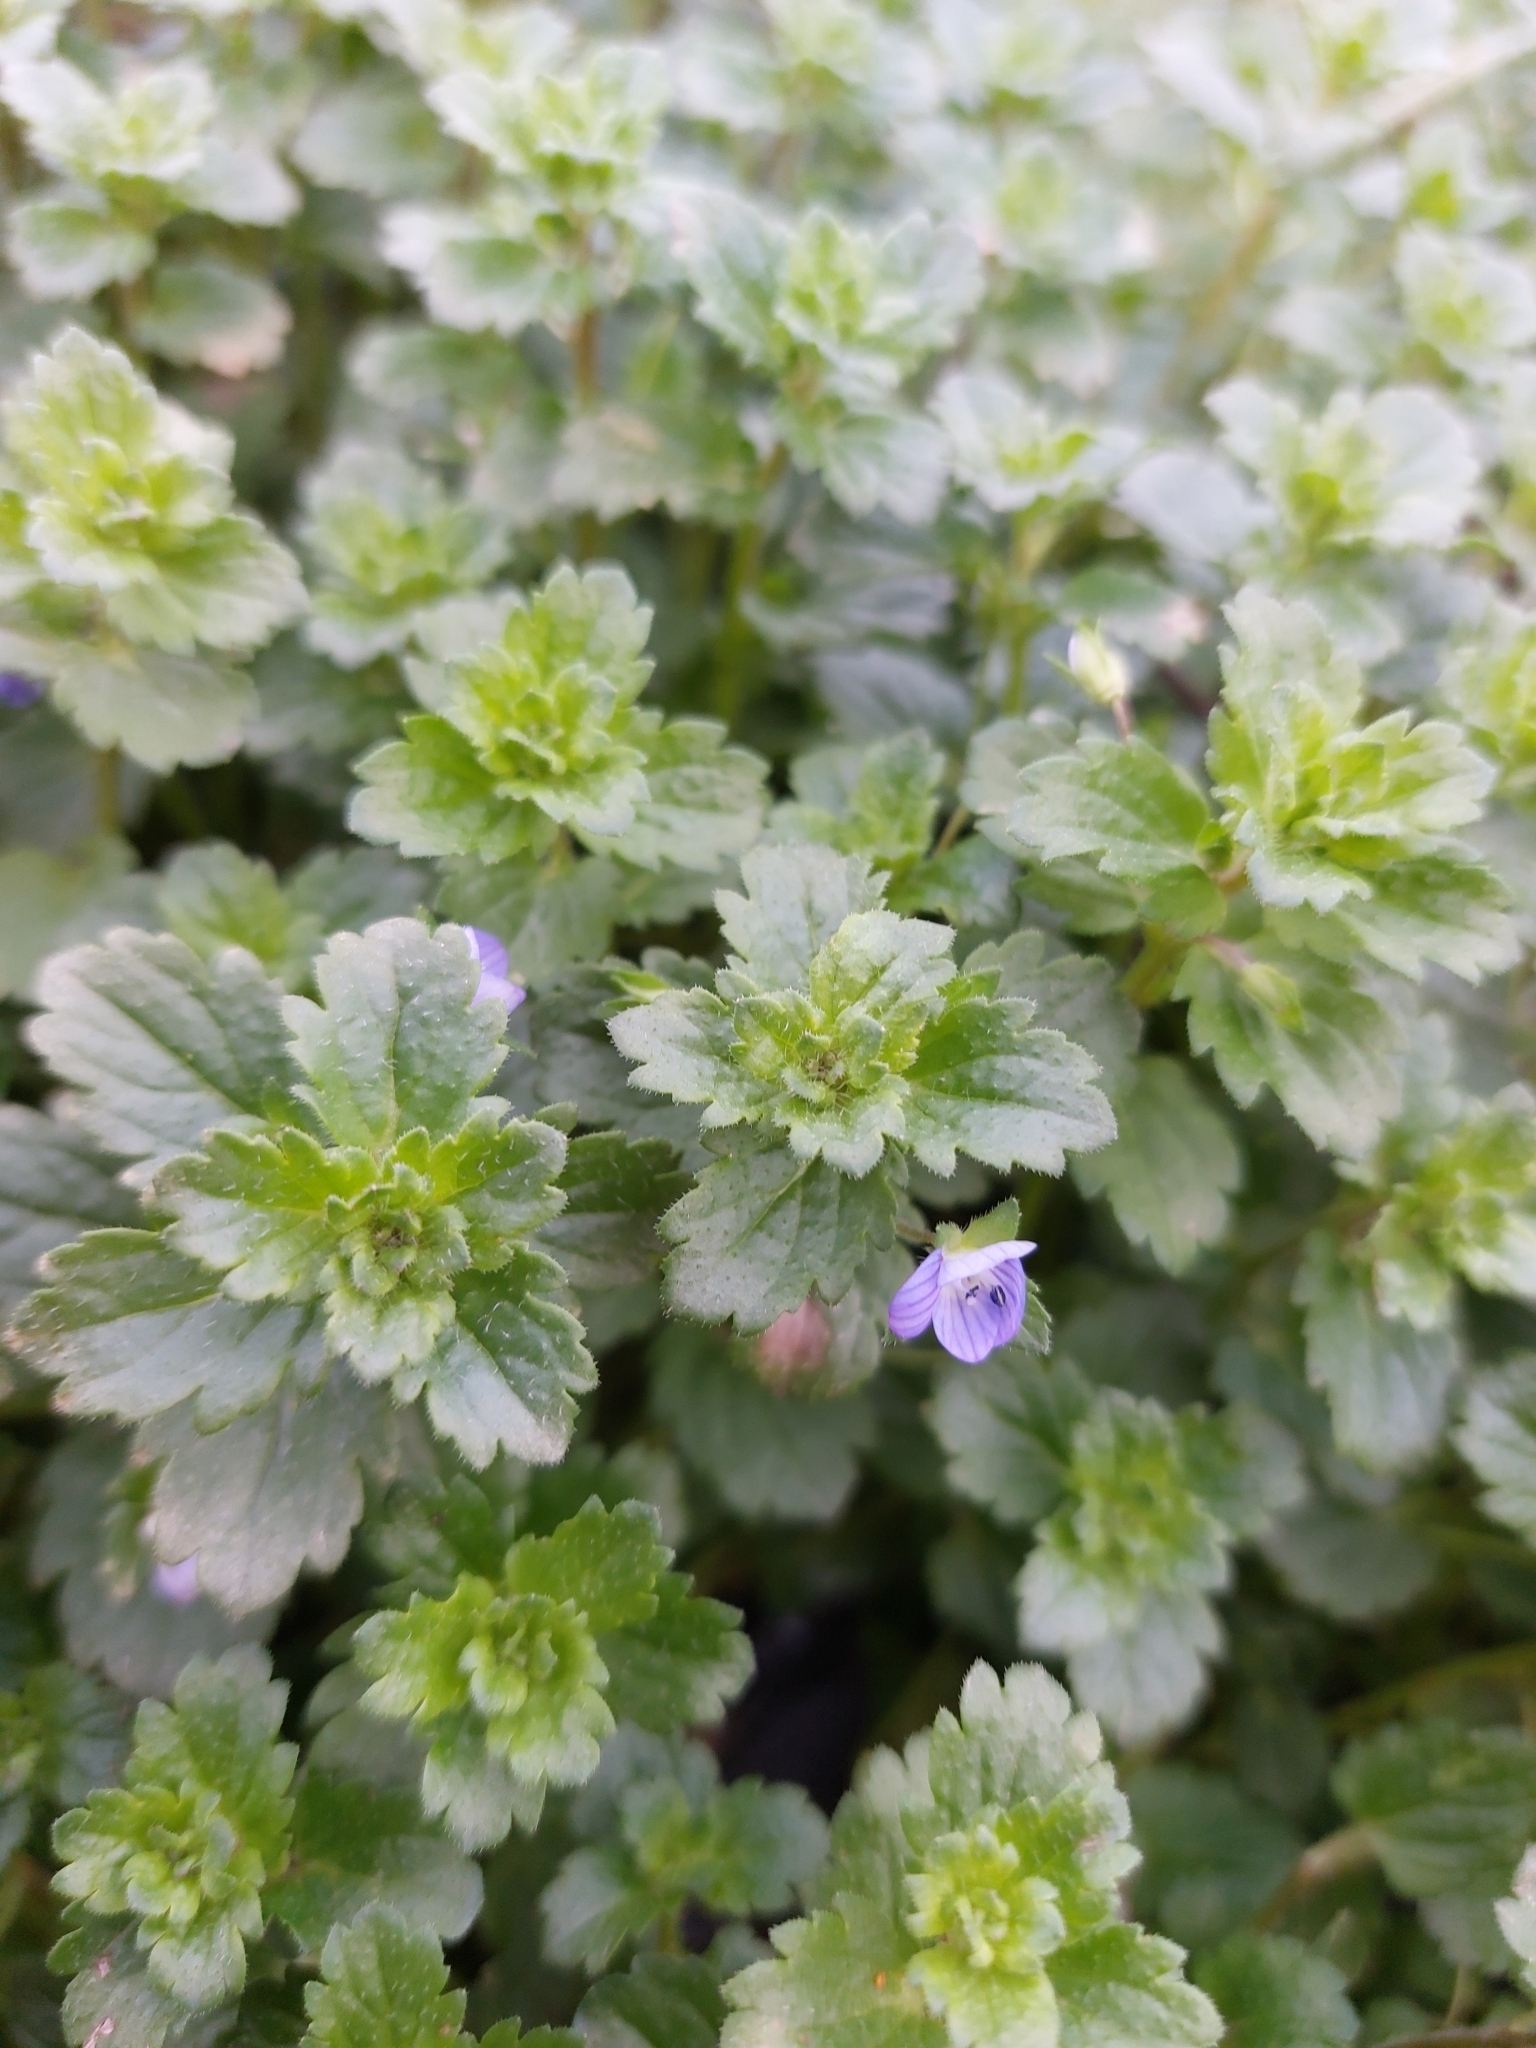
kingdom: Plantae
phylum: Tracheophyta
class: Magnoliopsida
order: Lamiales
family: Plantaginaceae
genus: Veronica
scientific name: Veronica persica
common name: Common field-speedwell
